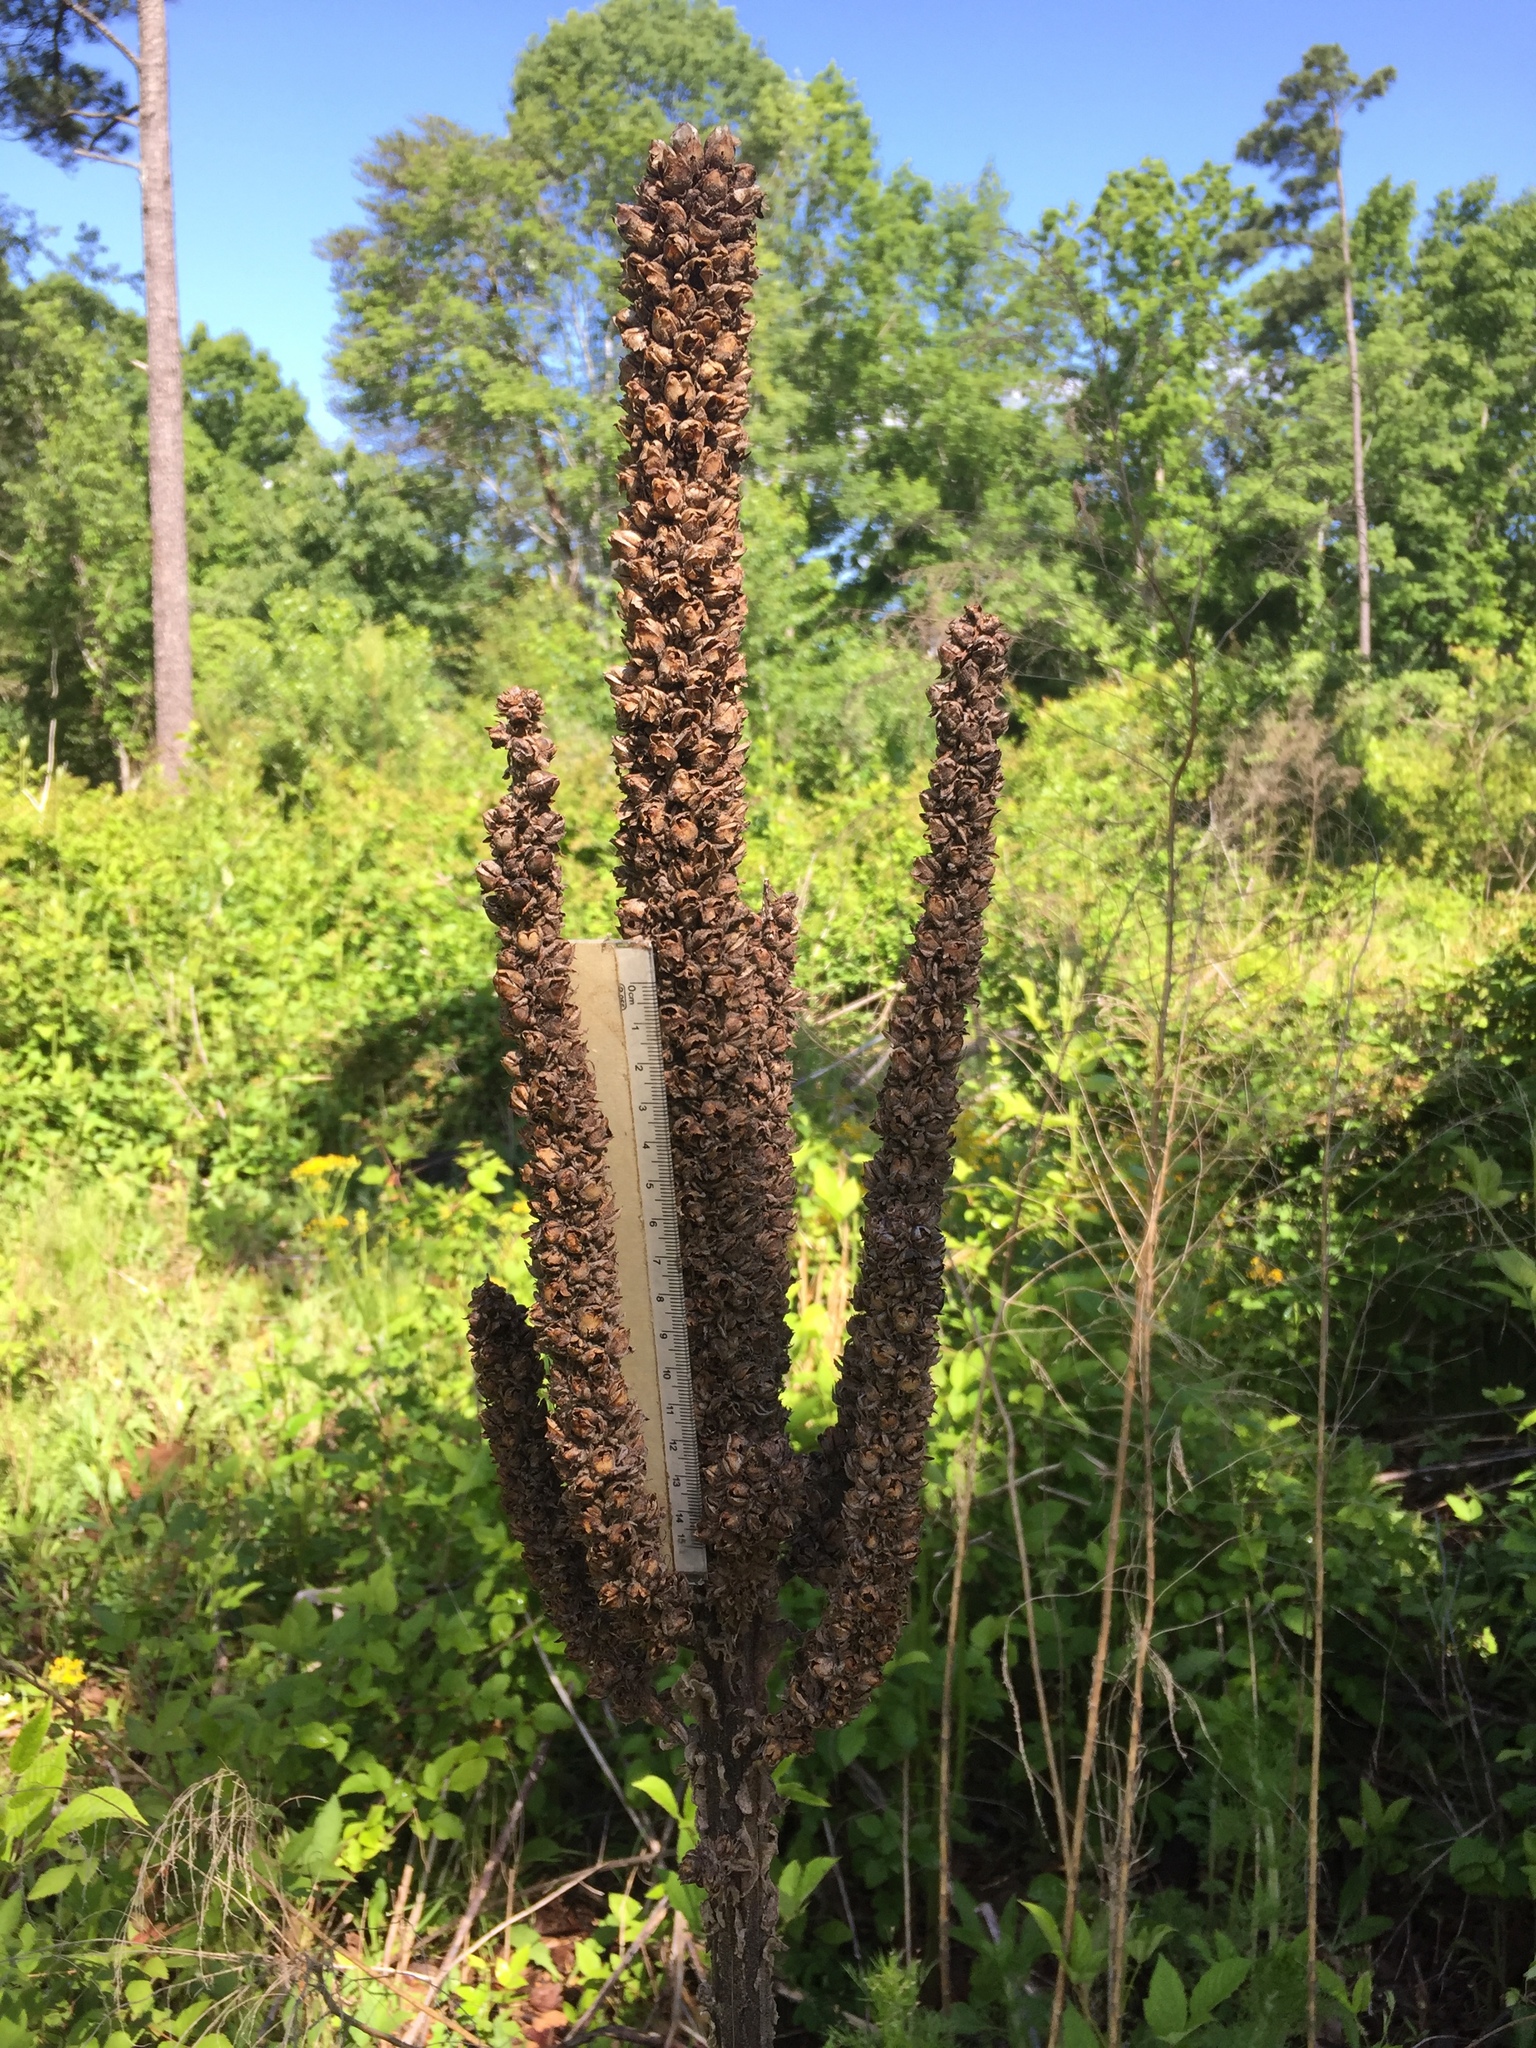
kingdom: Plantae
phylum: Tracheophyta
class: Magnoliopsida
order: Lamiales
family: Scrophulariaceae
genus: Verbascum
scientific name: Verbascum thapsus
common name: Common mullein
